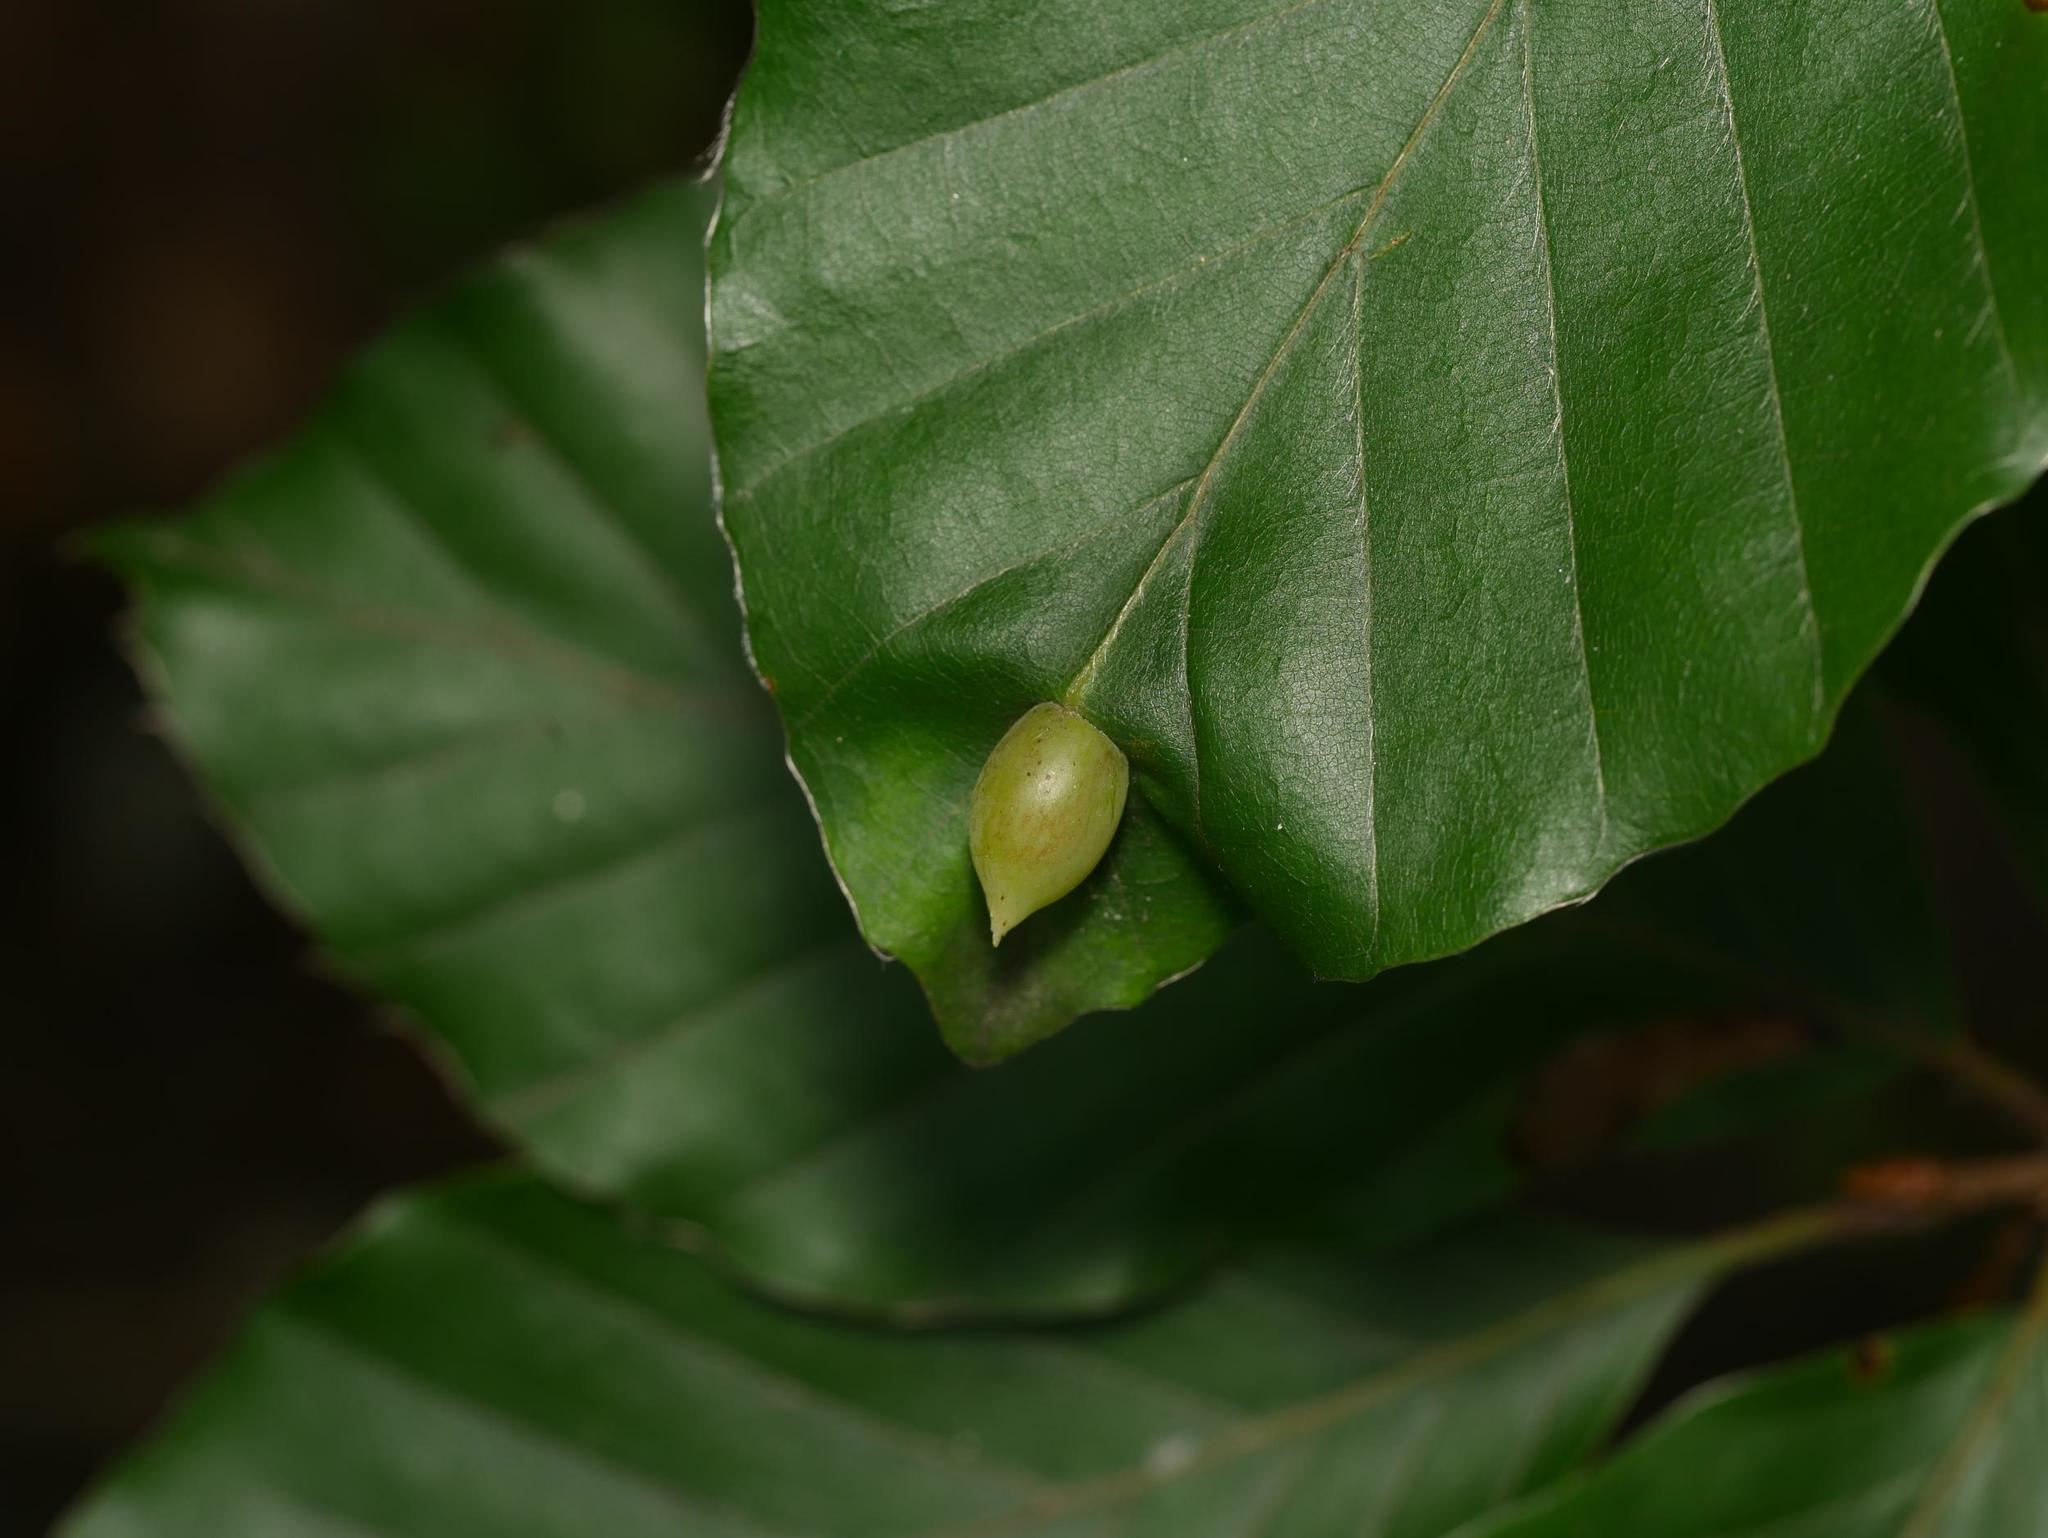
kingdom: Animalia
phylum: Arthropoda
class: Insecta
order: Diptera
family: Cecidomyiidae
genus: Mikiola
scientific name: Mikiola fagi
